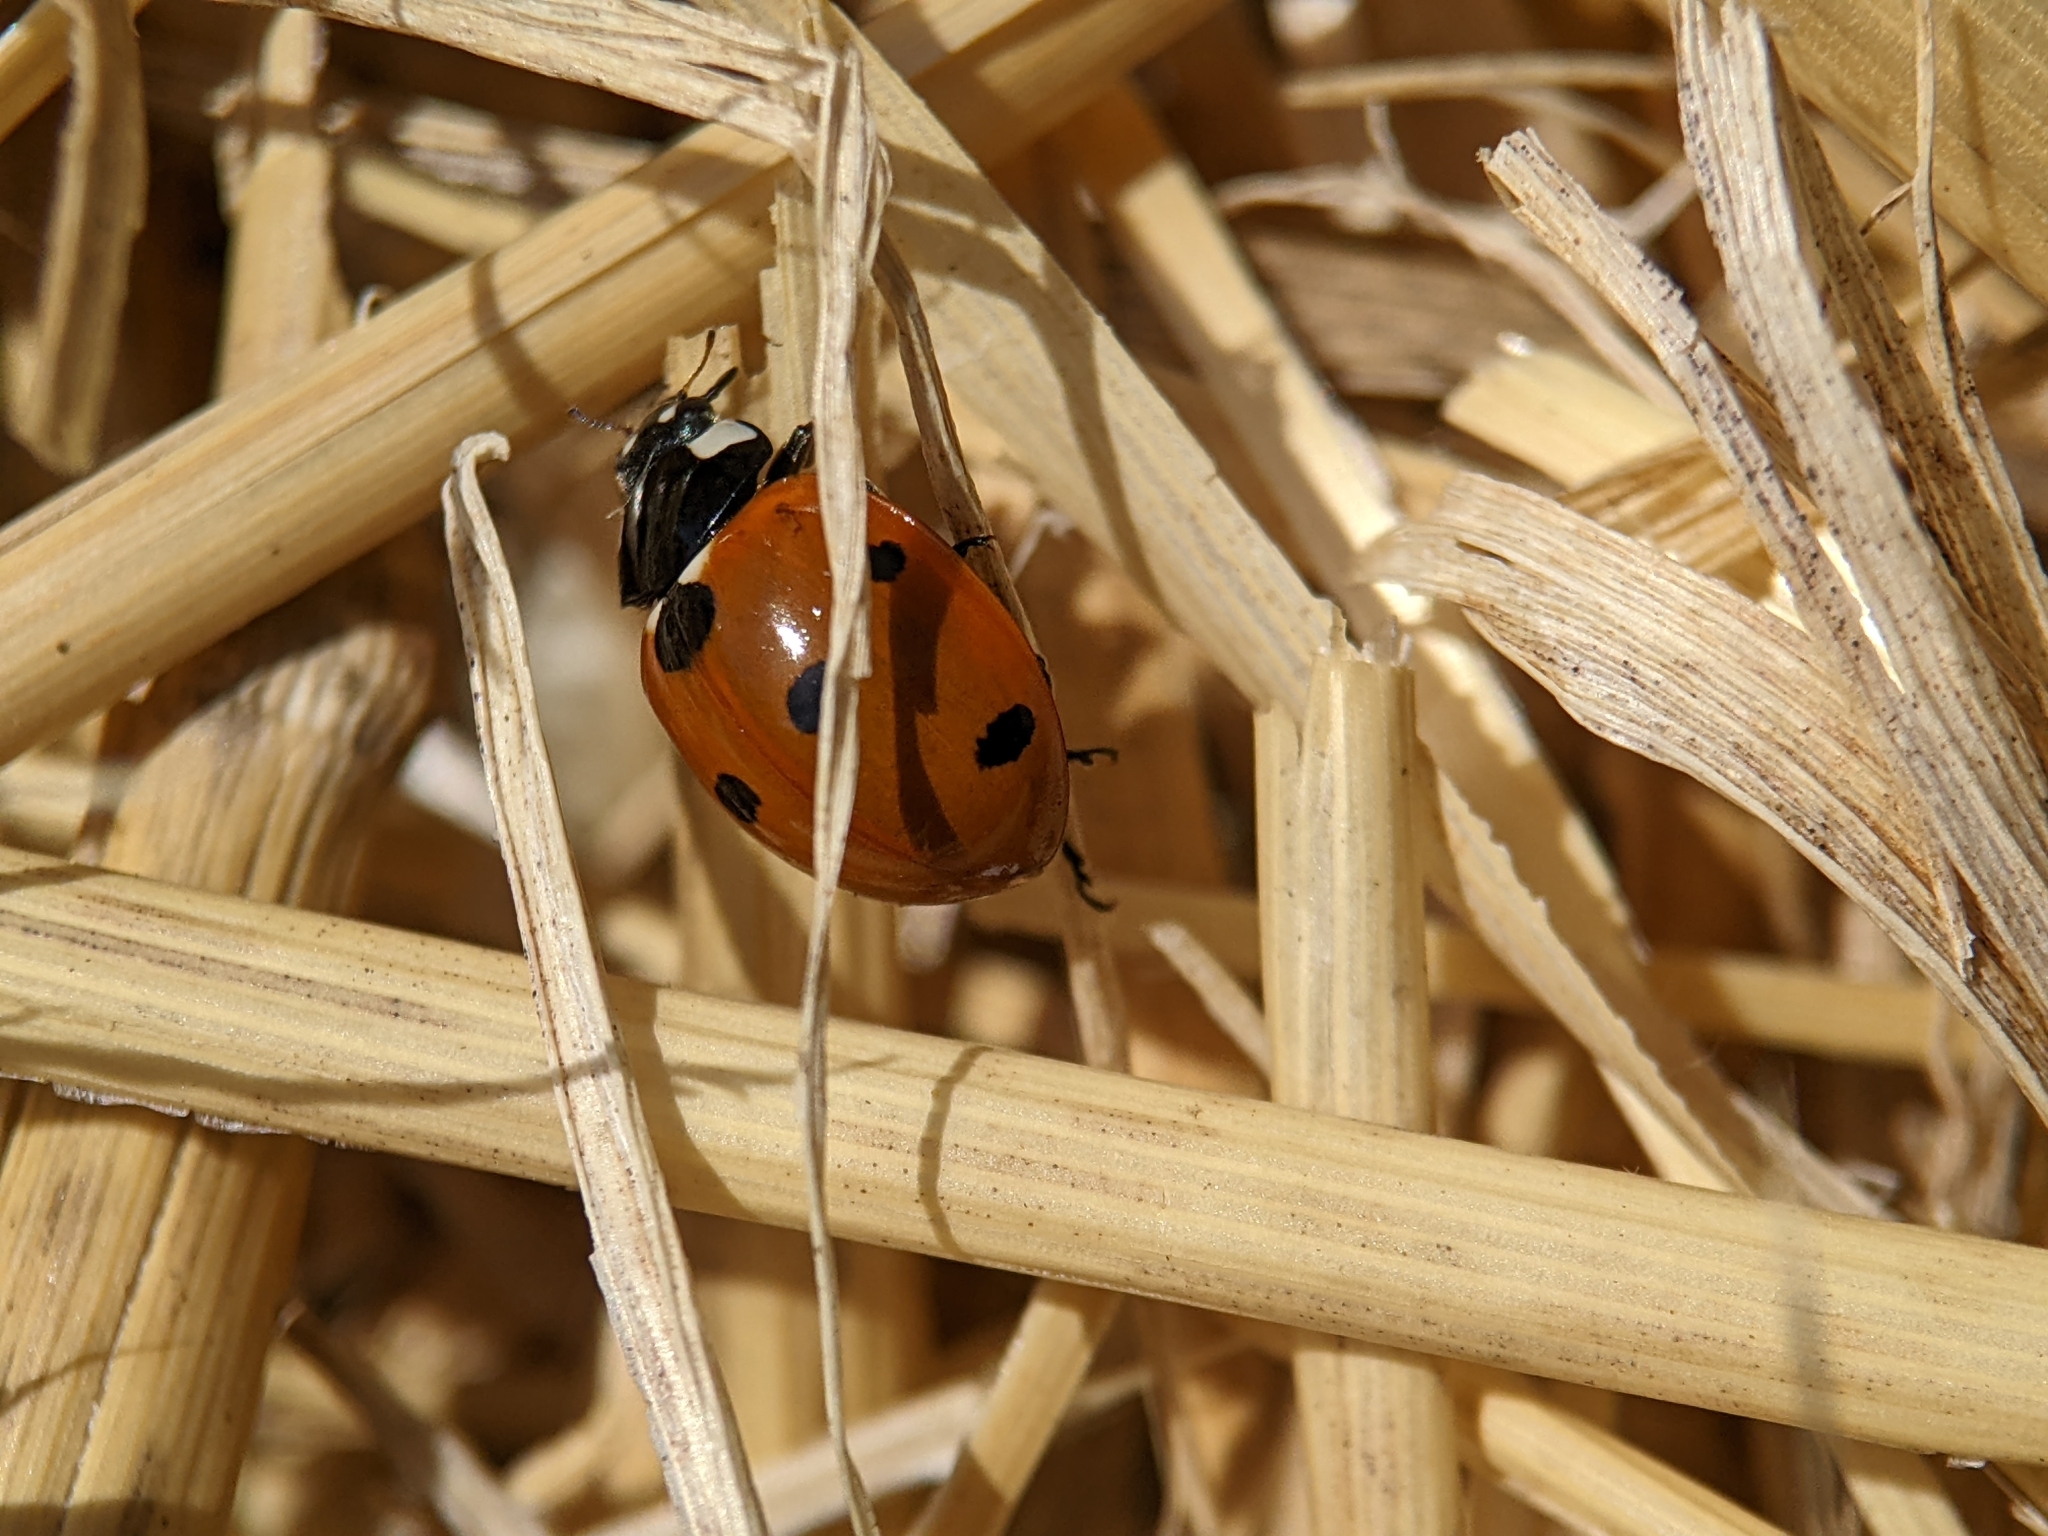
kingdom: Animalia
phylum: Arthropoda
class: Insecta
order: Coleoptera
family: Coccinellidae
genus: Coccinella
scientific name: Coccinella septempunctata
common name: Sevenspotted lady beetle
